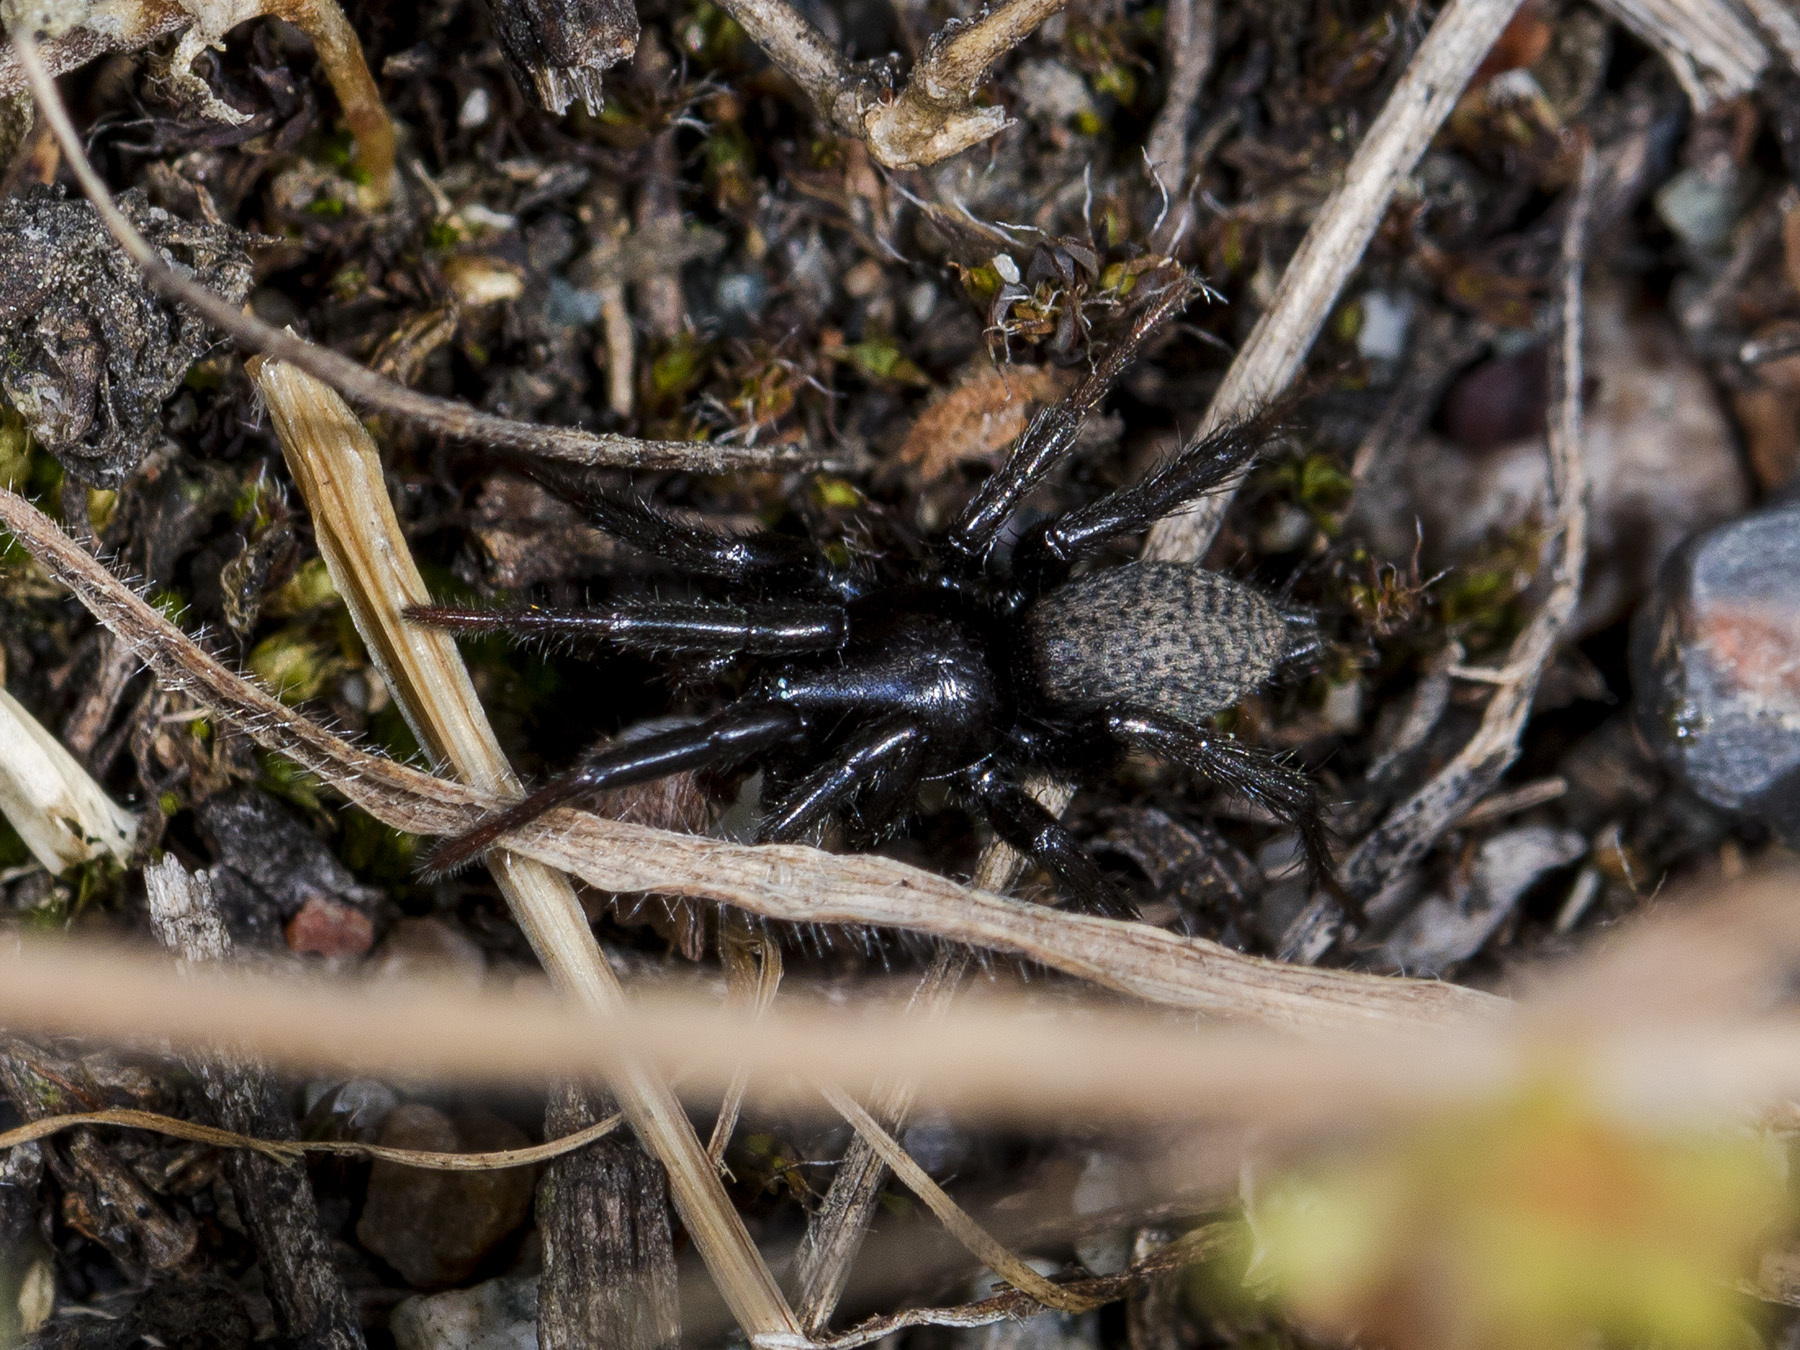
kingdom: Animalia
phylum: Arthropoda
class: Arachnida
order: Araneae
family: Gnaphosidae
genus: Gnaphosa
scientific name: Gnaphosa licenti
